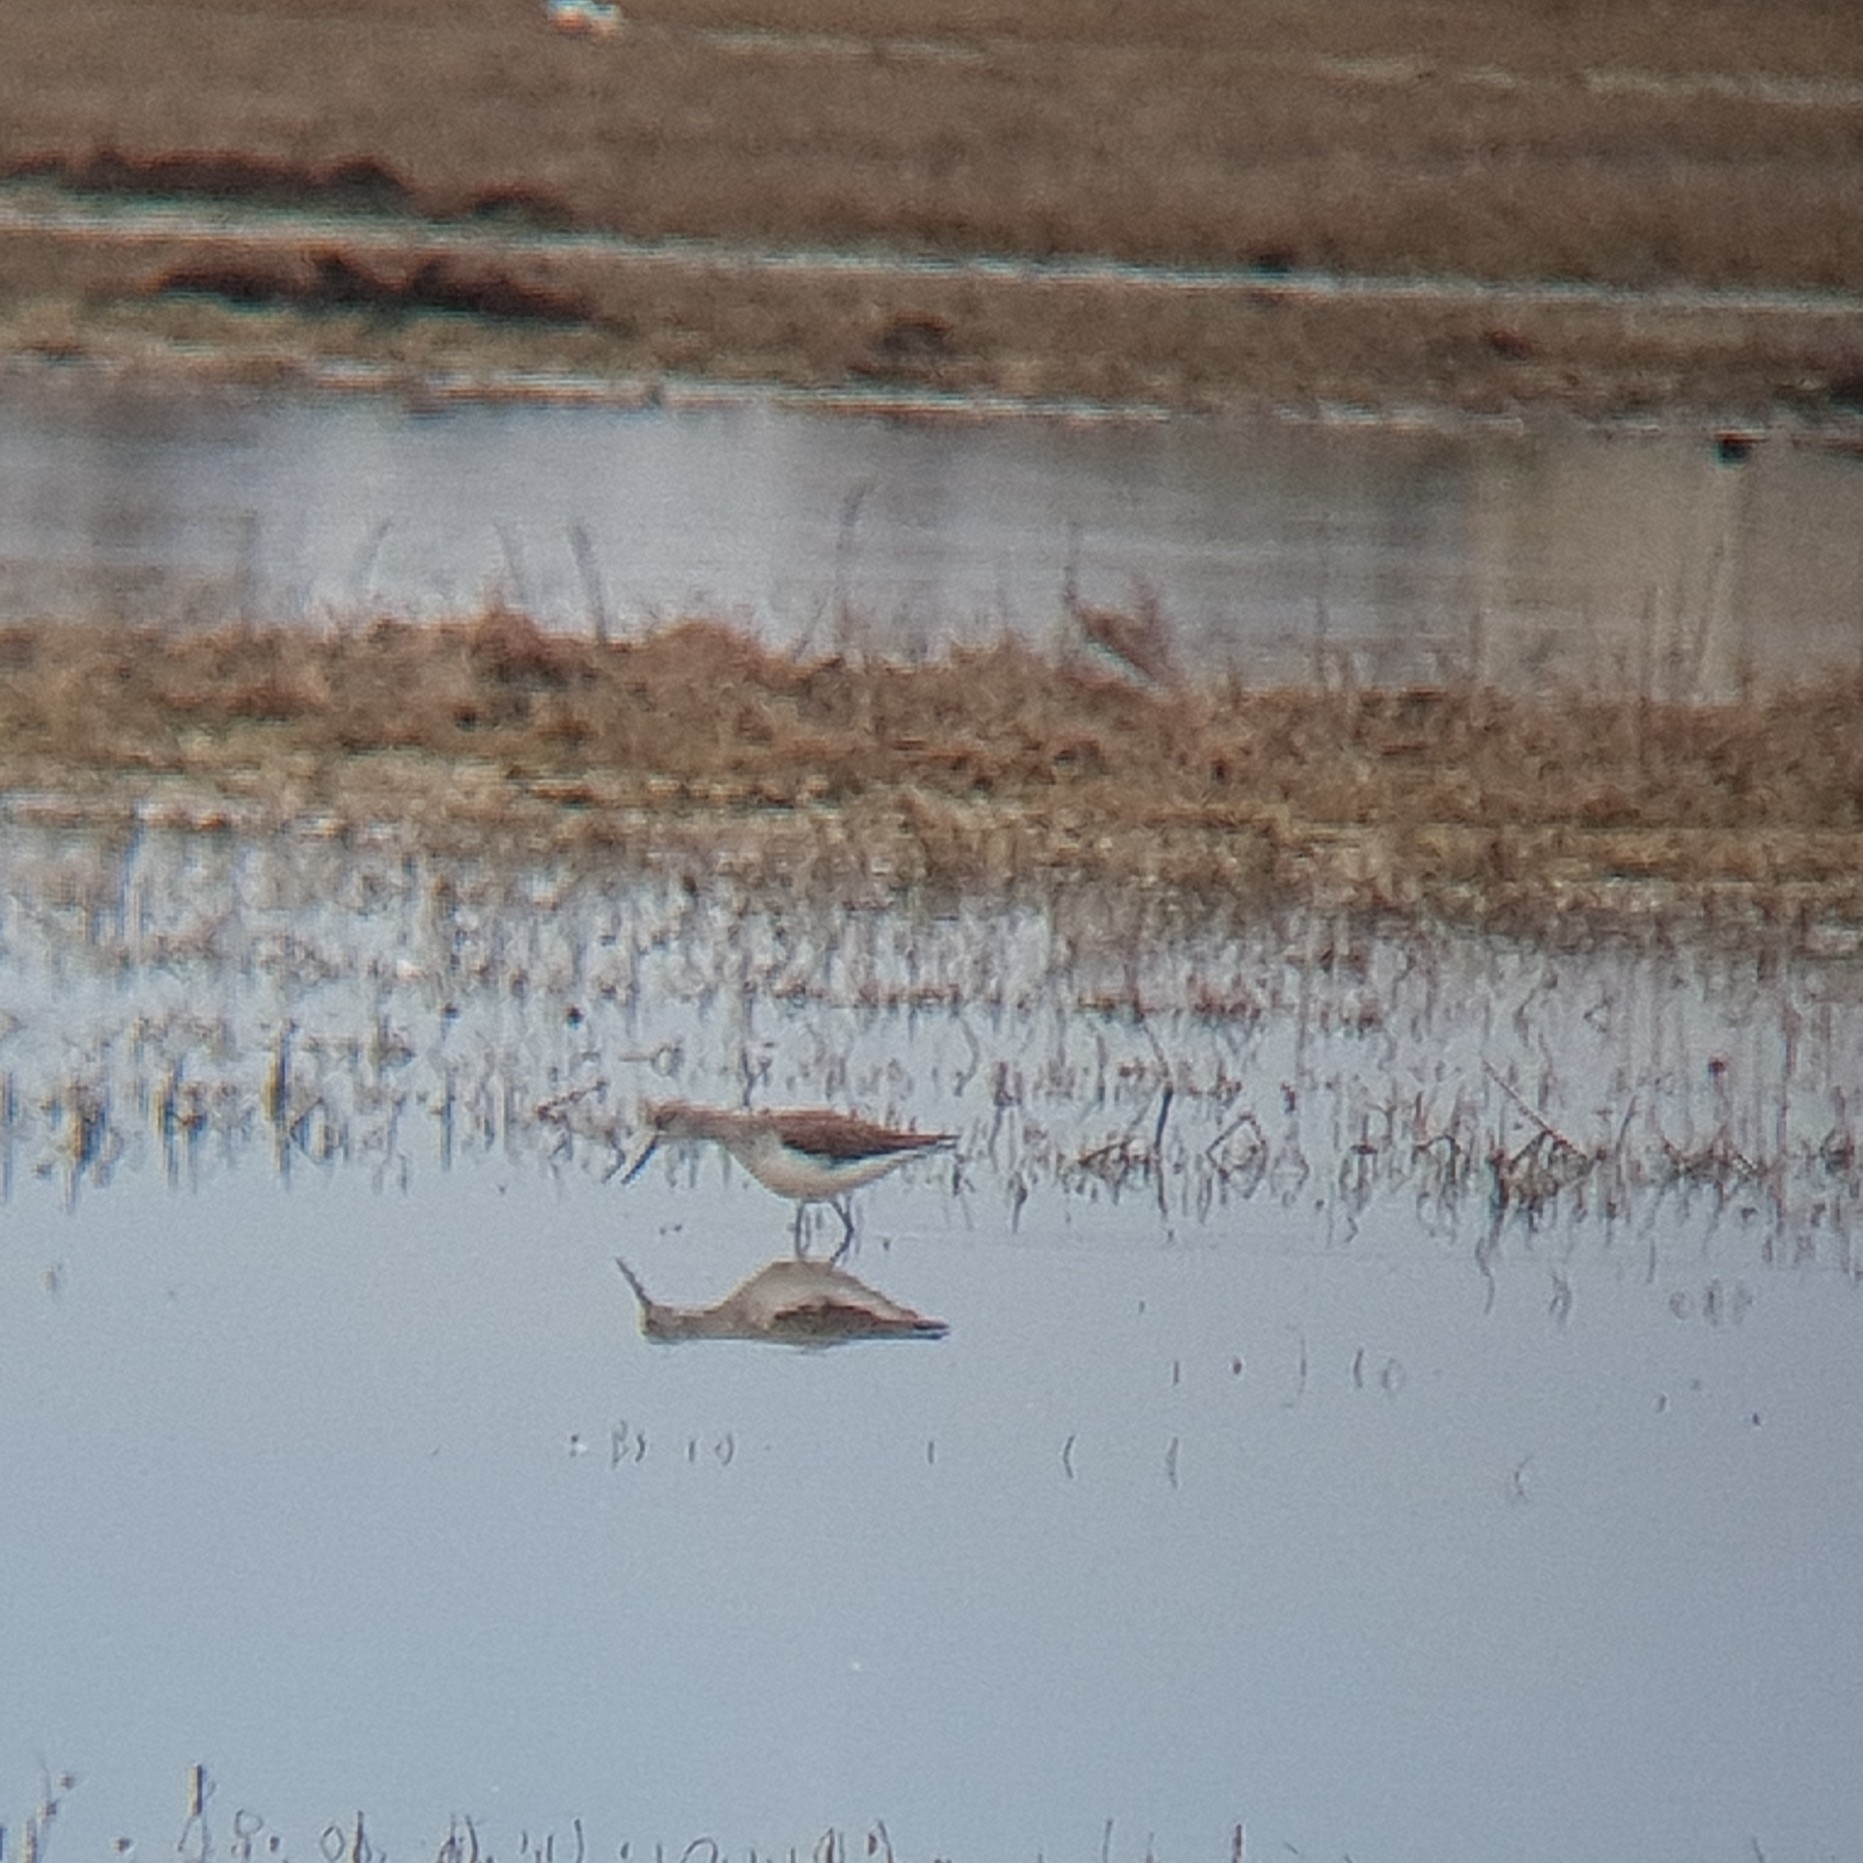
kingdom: Animalia
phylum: Chordata
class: Aves
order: Charadriiformes
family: Scolopacidae
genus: Tringa
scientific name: Tringa nebularia
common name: Common greenshank
